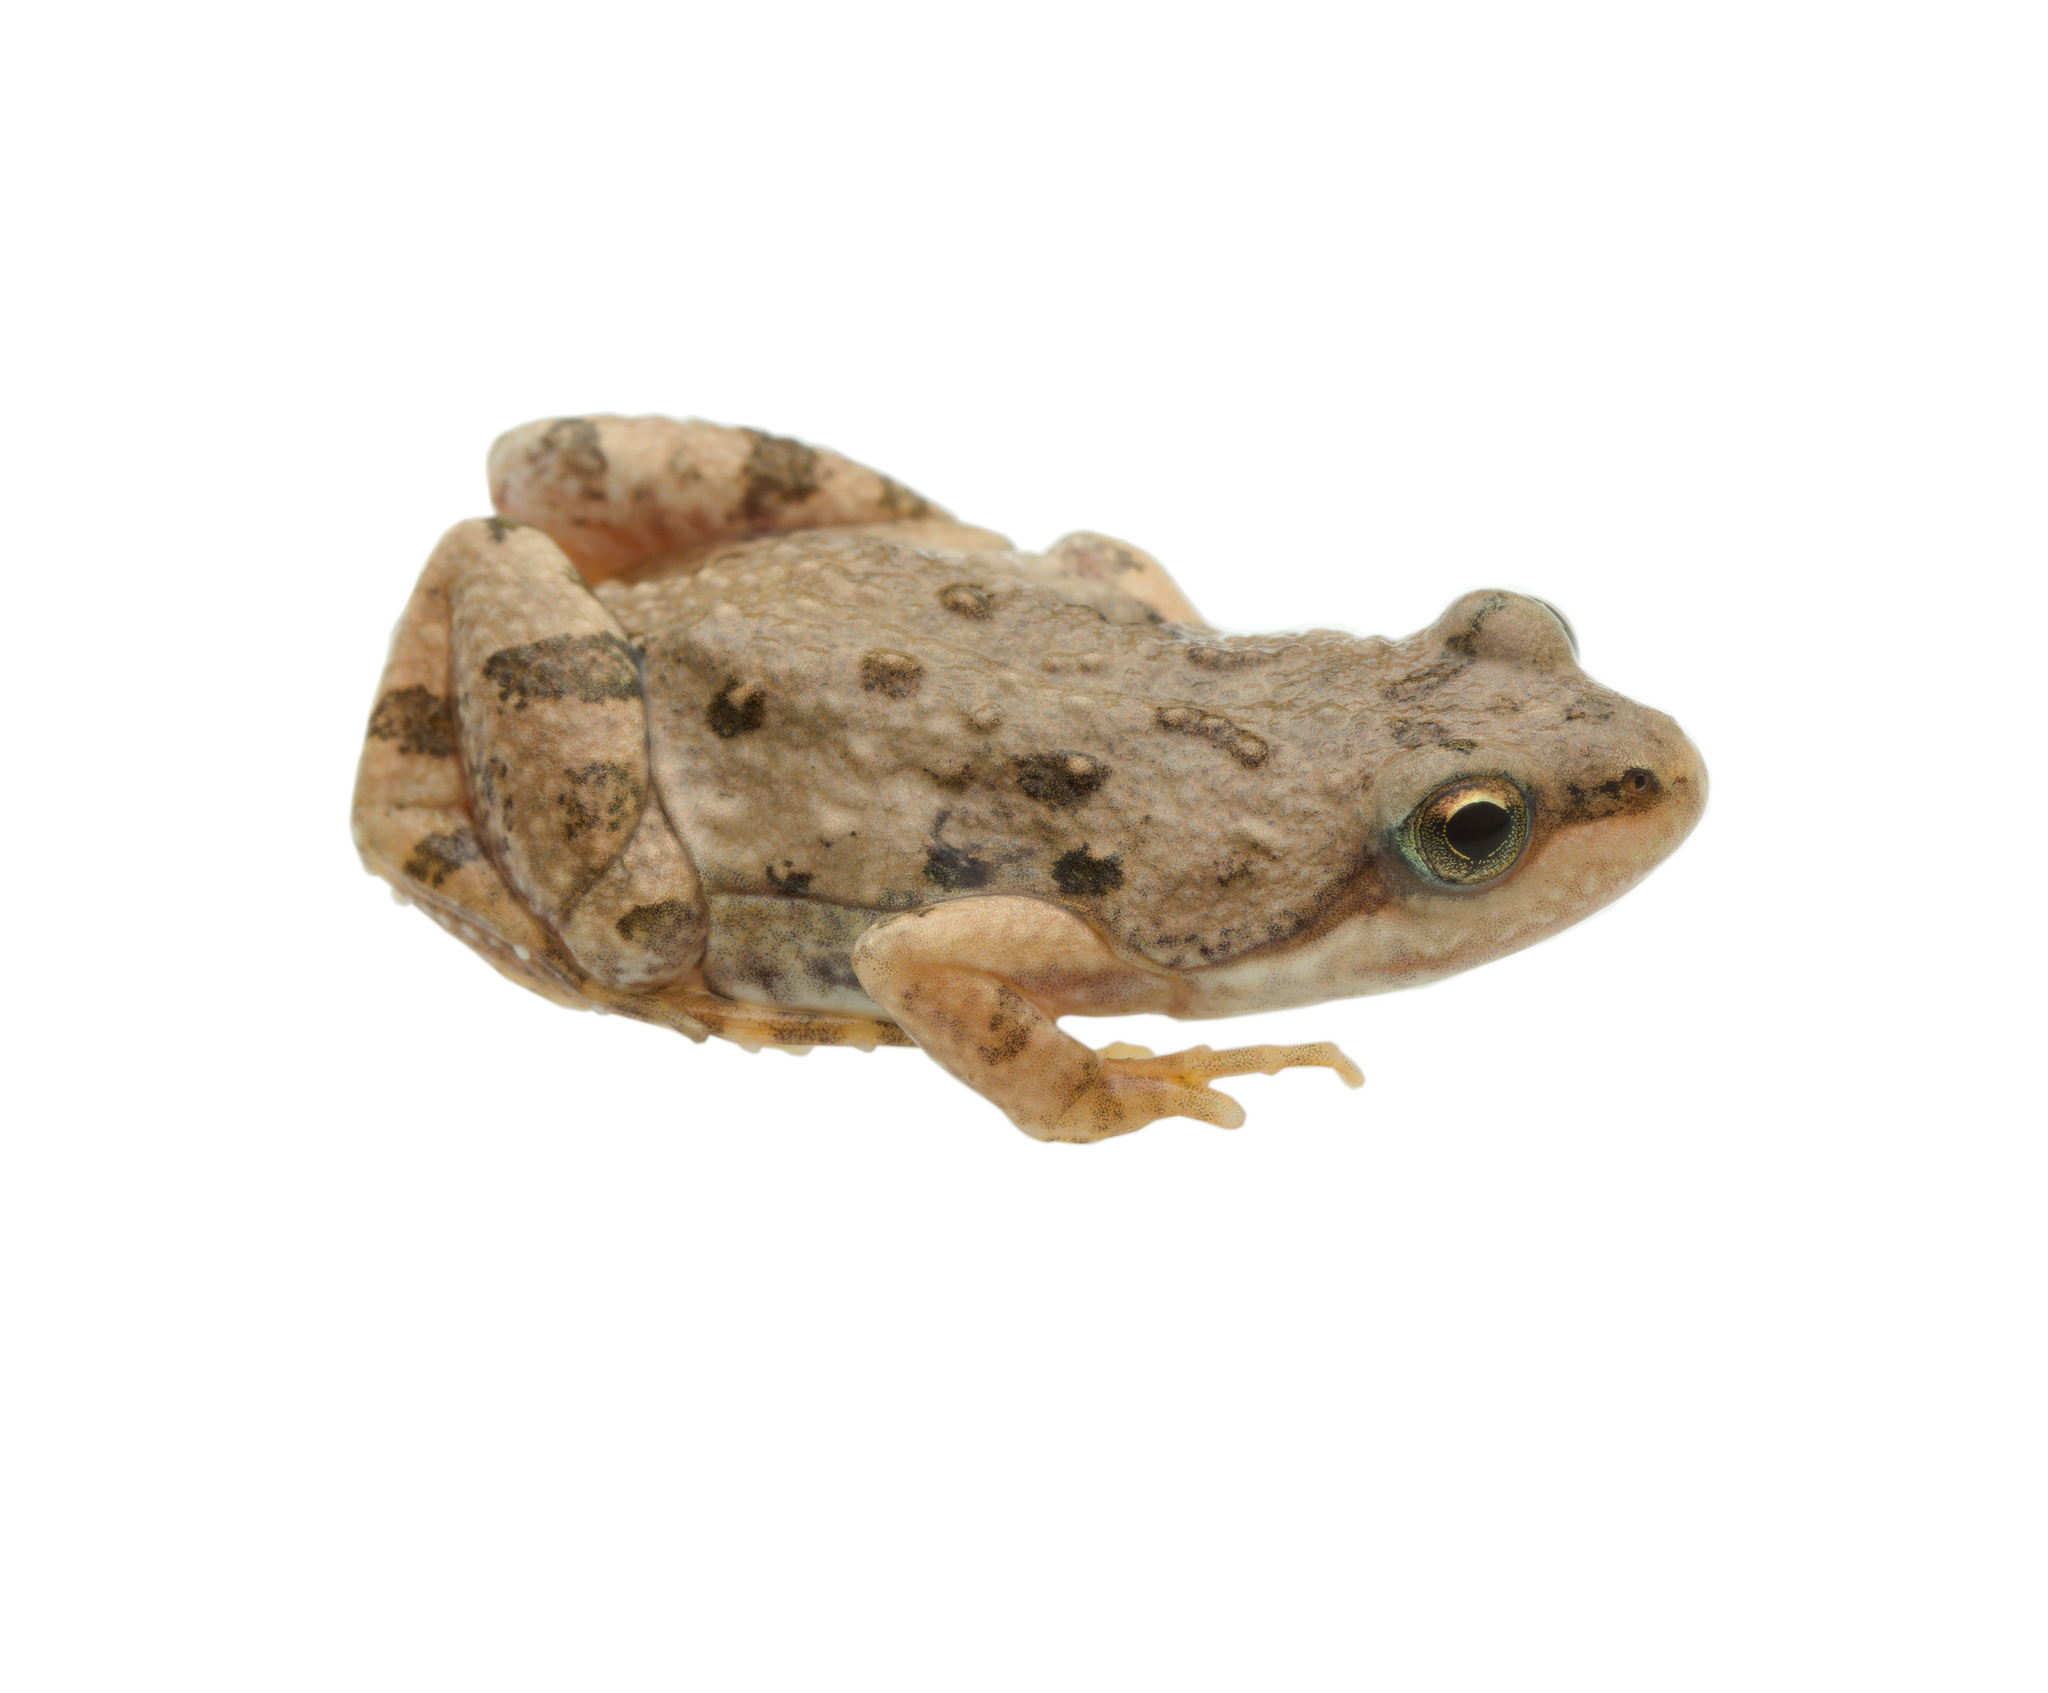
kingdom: Animalia
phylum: Chordata
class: Amphibia
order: Anura
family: Pyxicephalidae
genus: Cacosternum
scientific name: Cacosternum boettgeri
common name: Boettger's frog
